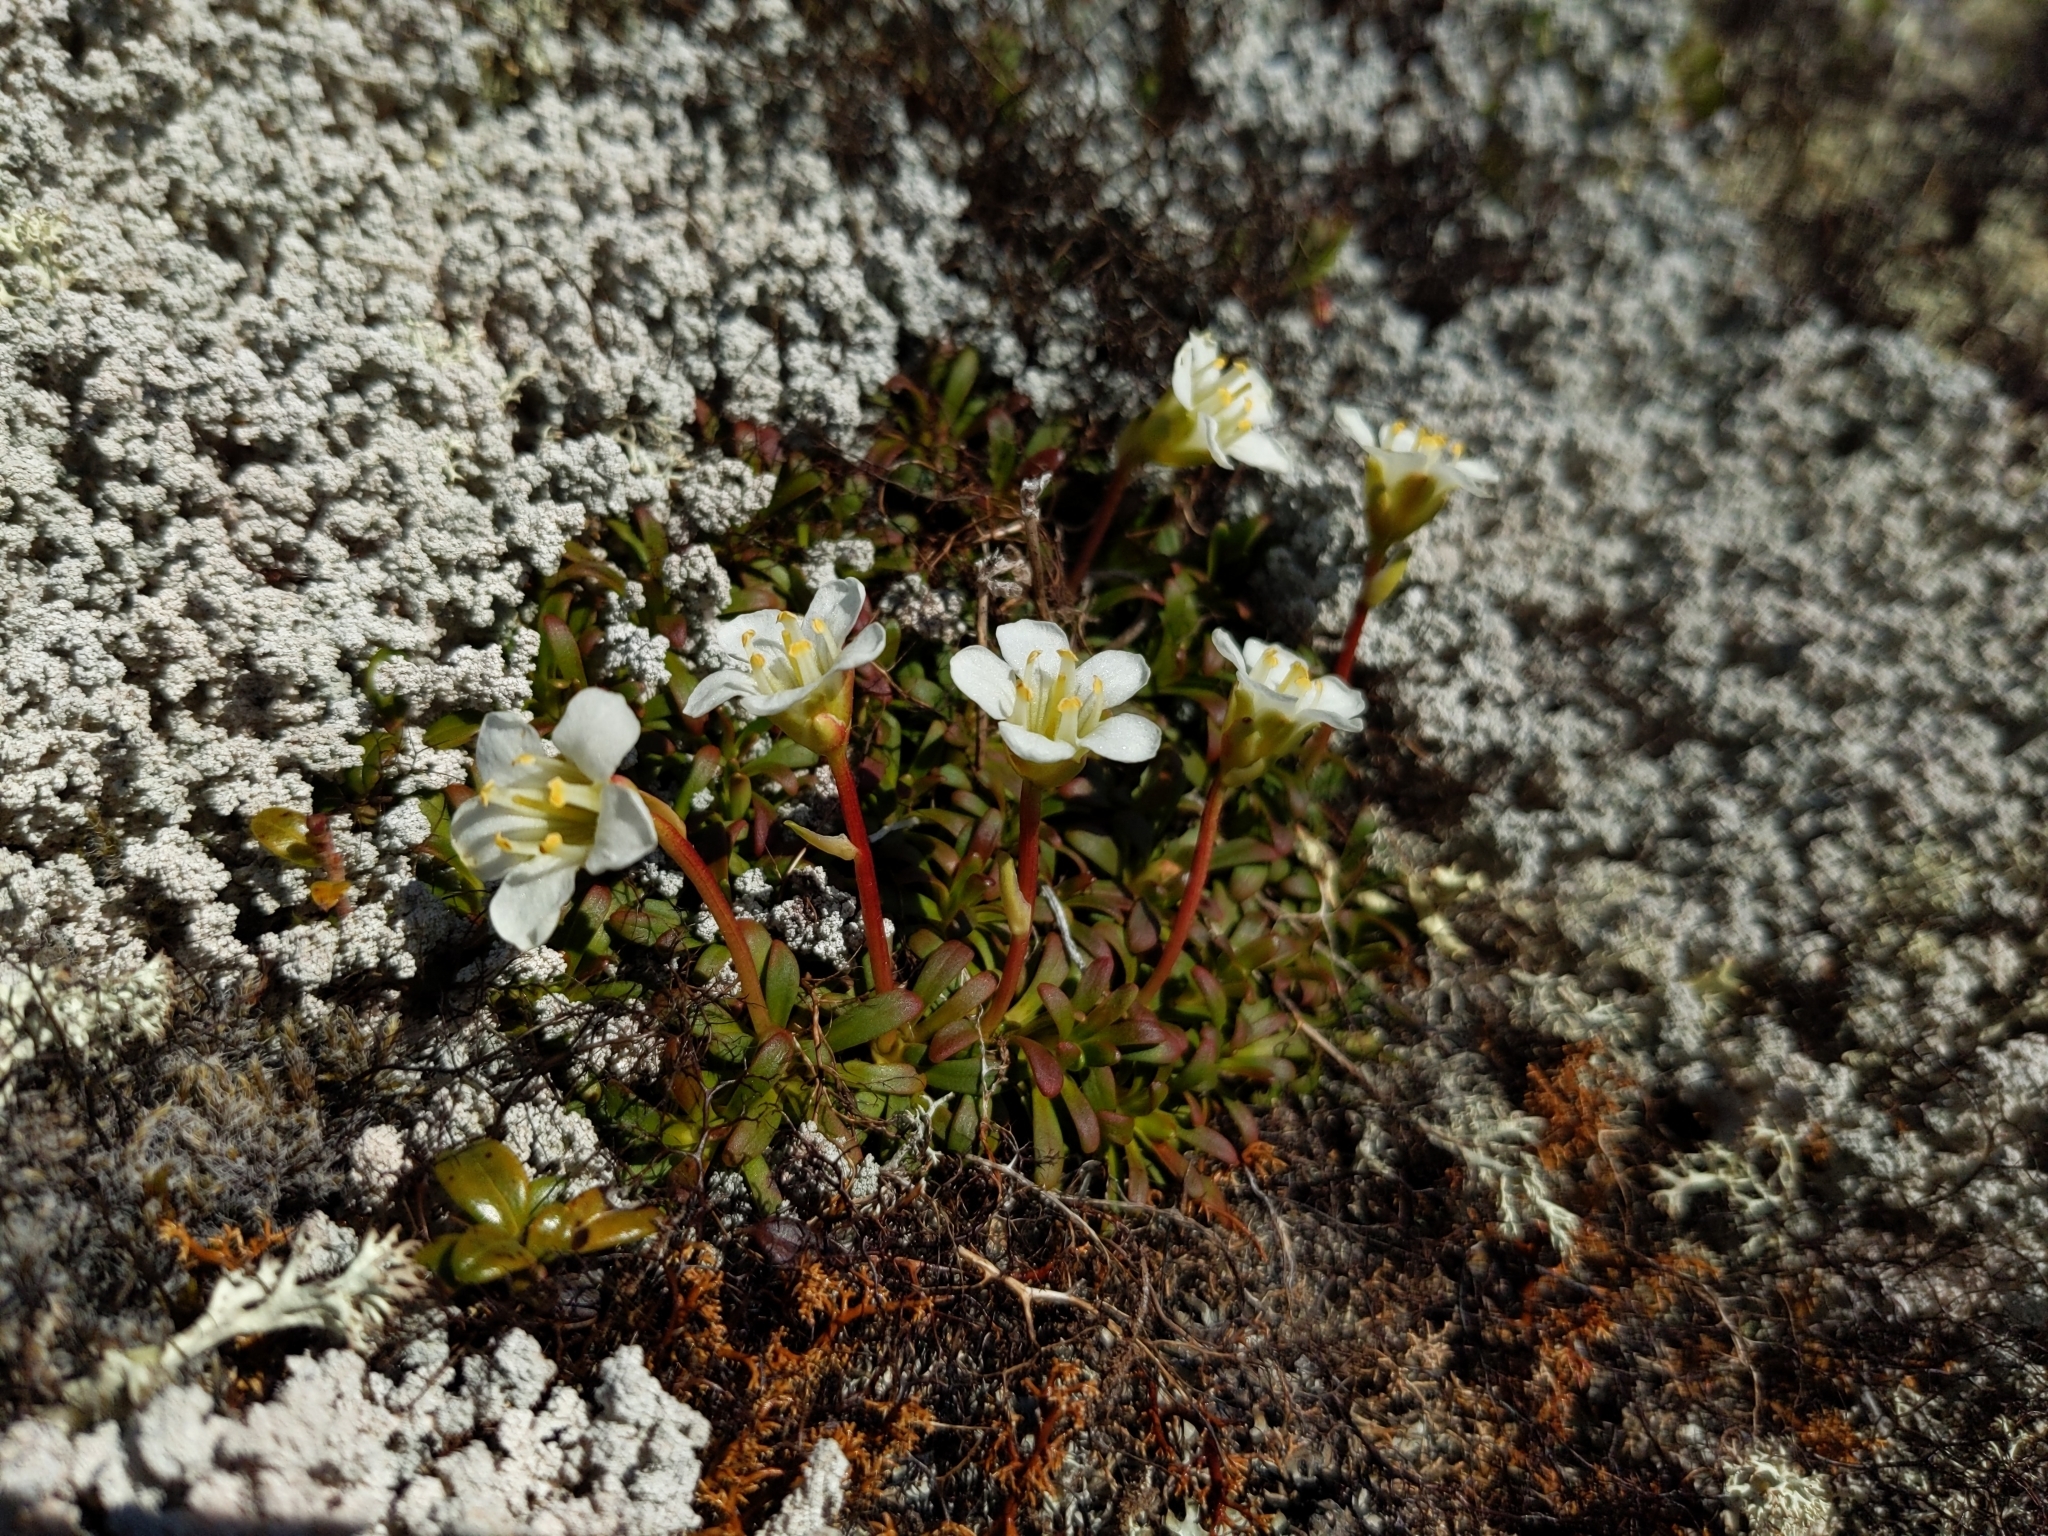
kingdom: Plantae
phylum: Tracheophyta
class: Magnoliopsida
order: Ericales
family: Diapensiaceae
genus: Diapensia
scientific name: Diapensia lapponica
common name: Diapensia
